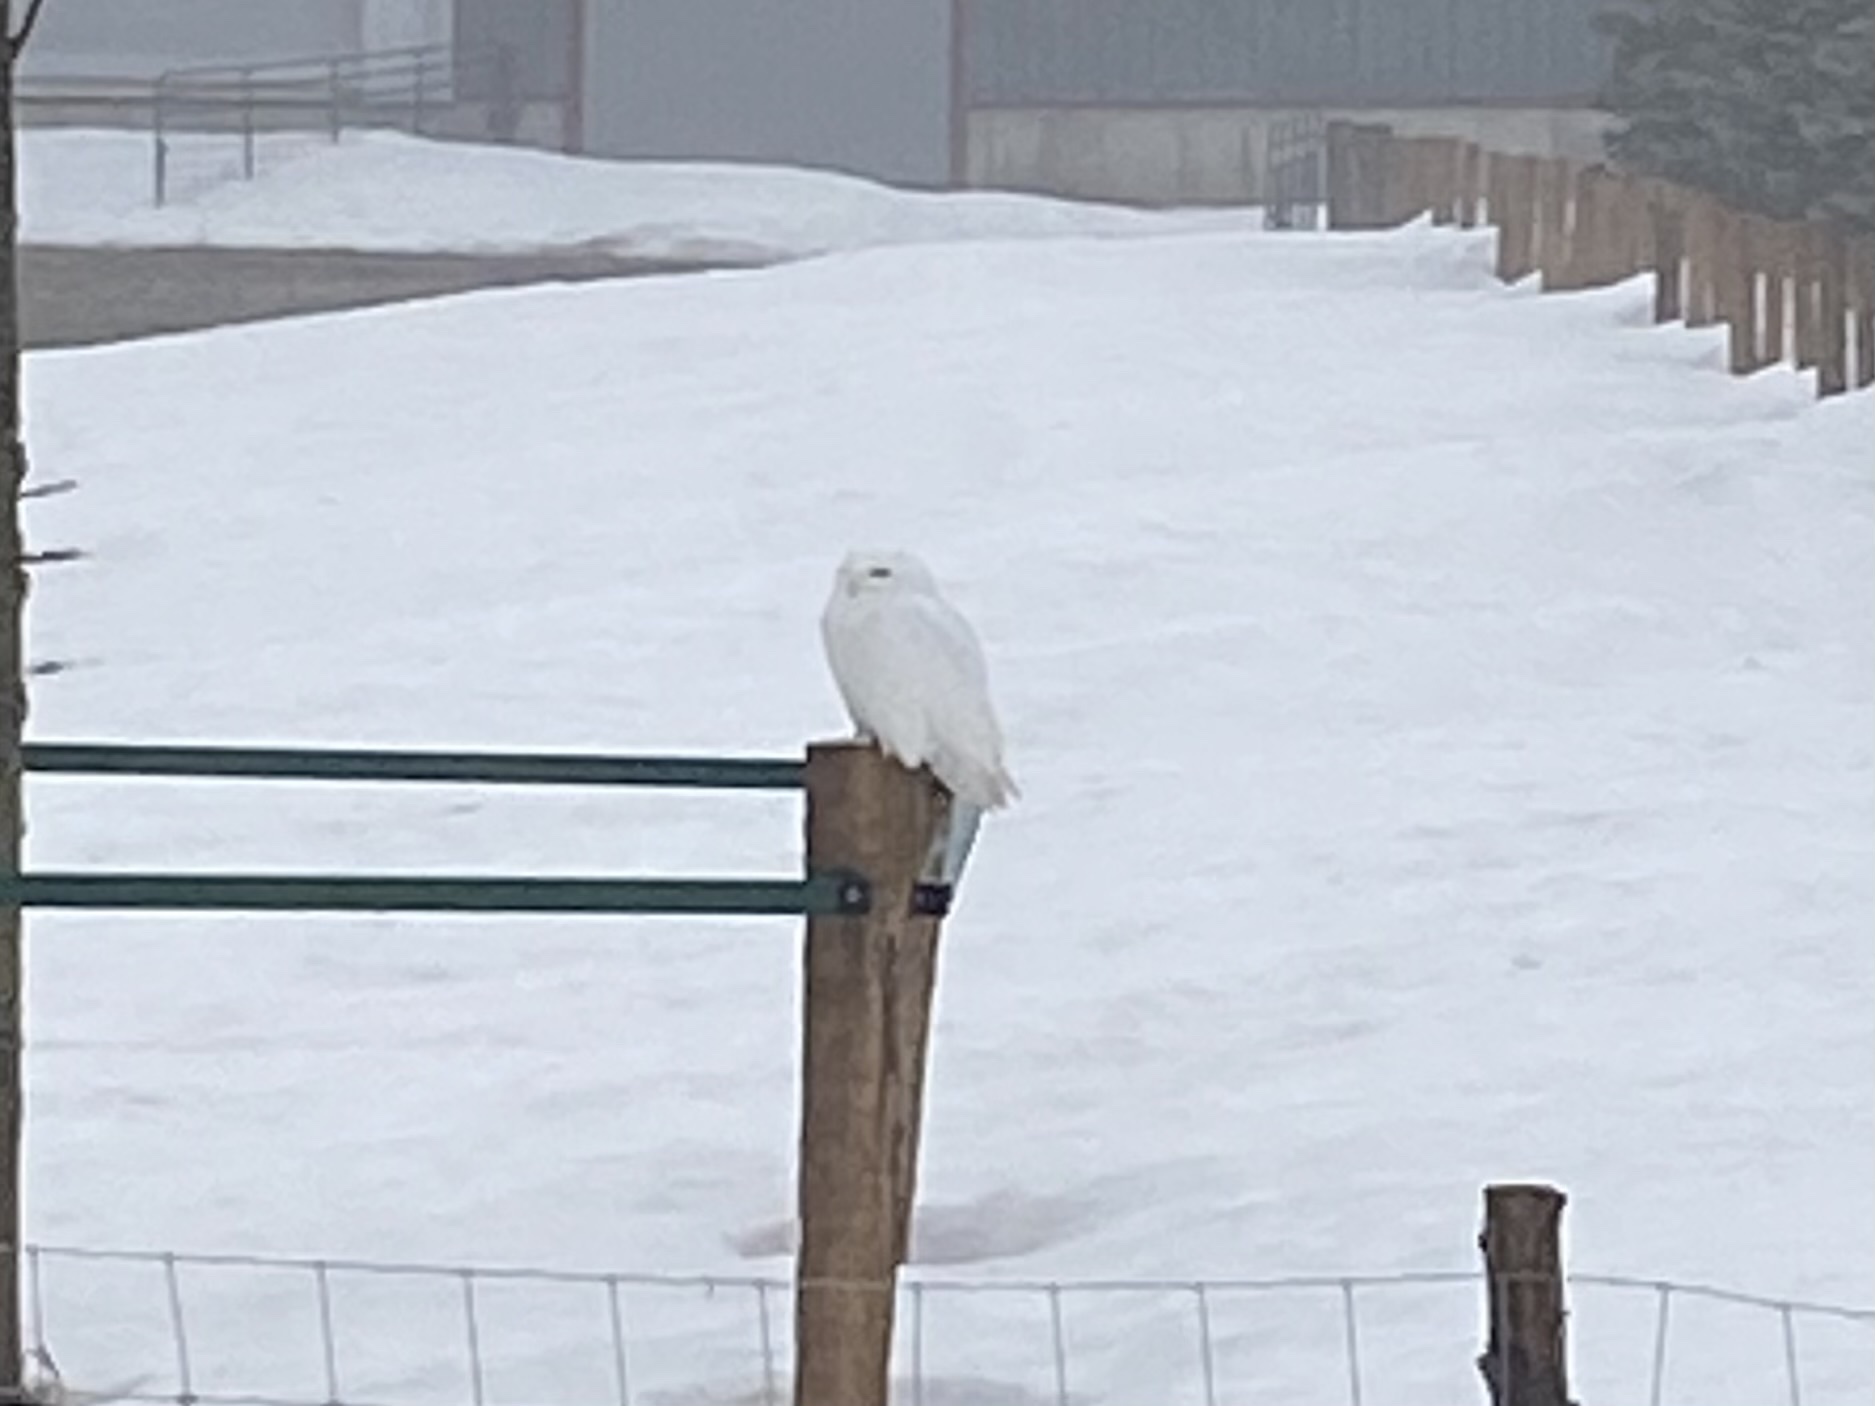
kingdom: Animalia
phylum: Chordata
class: Aves
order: Strigiformes
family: Strigidae
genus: Bubo
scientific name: Bubo scandiacus
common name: Snowy owl
